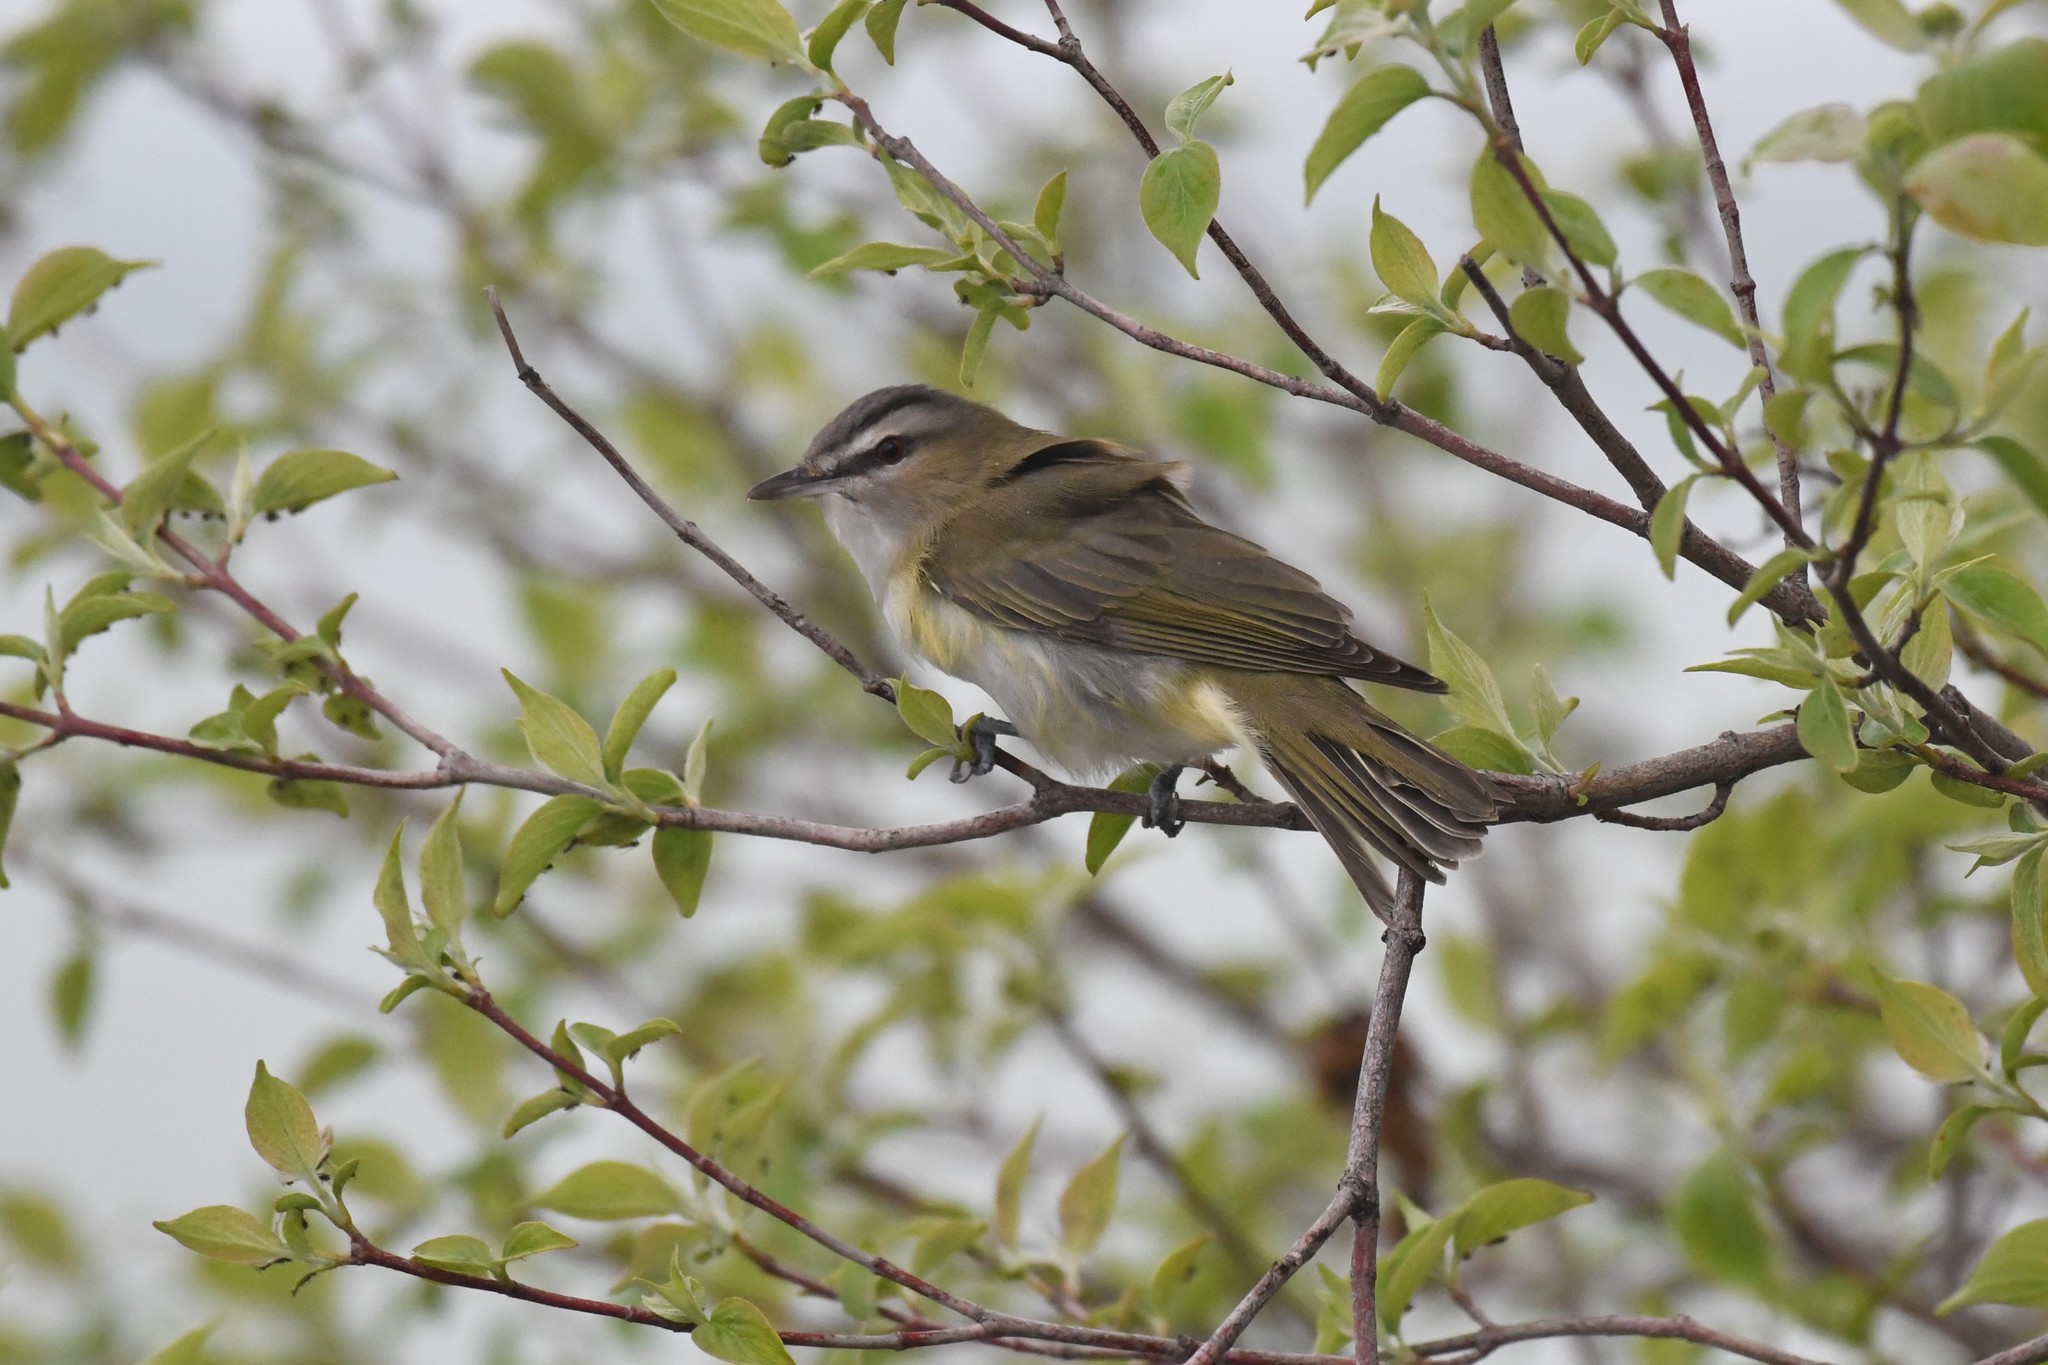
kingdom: Animalia
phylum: Chordata
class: Aves
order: Passeriformes
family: Vireonidae
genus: Vireo
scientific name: Vireo olivaceus
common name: Red-eyed vireo
